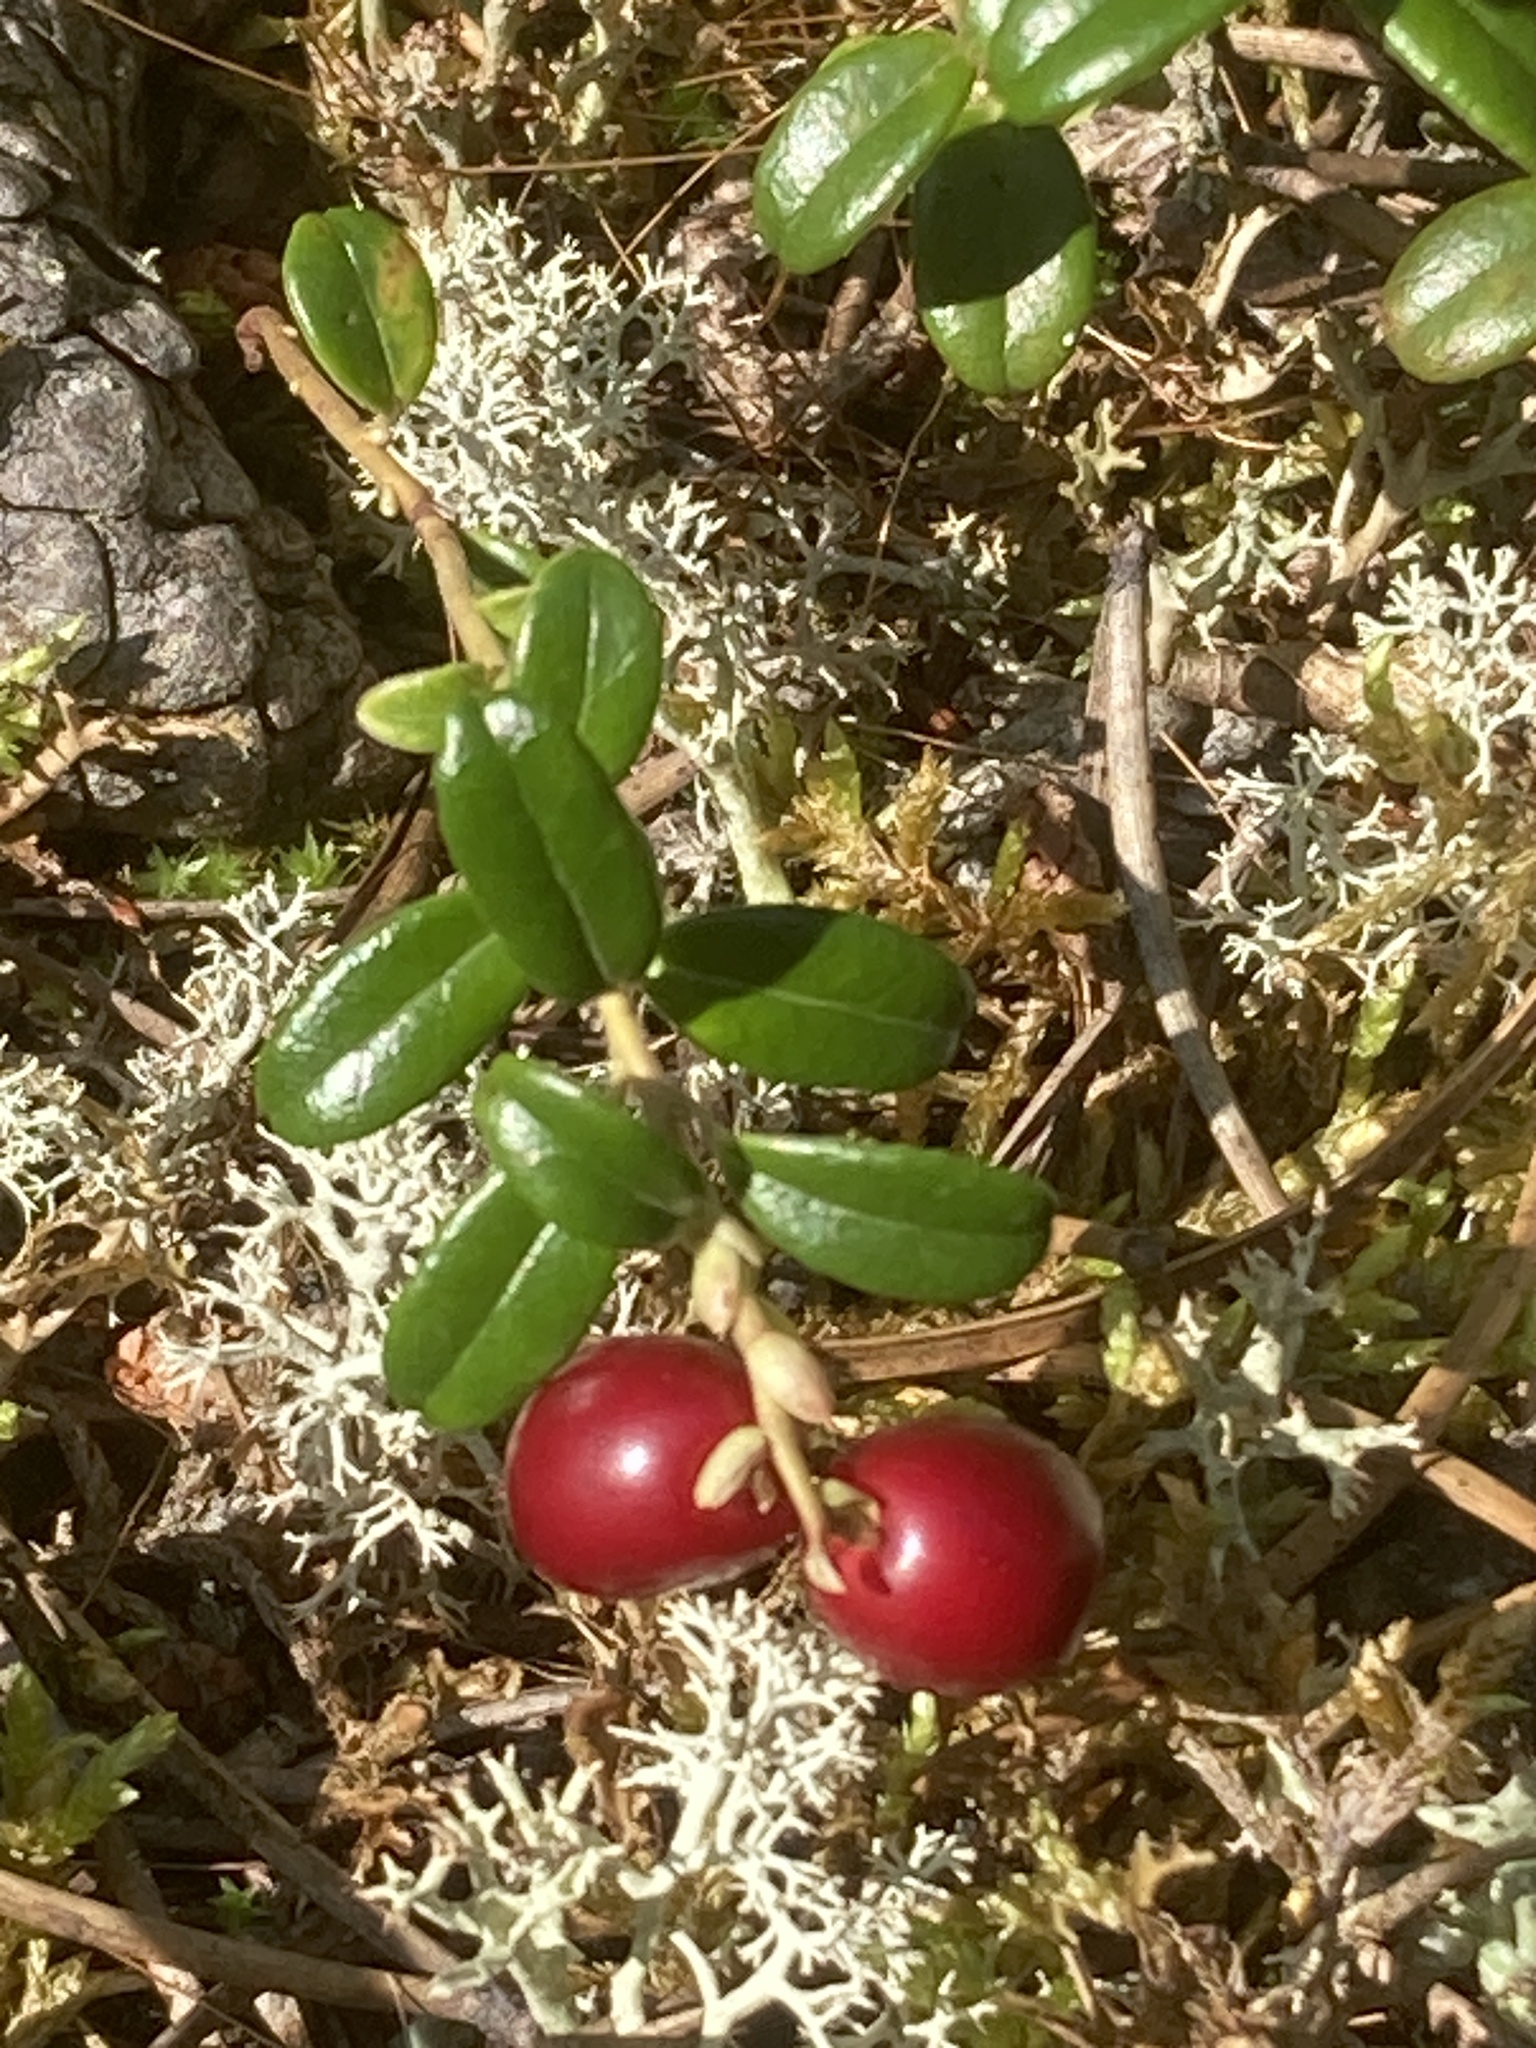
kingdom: Plantae
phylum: Tracheophyta
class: Magnoliopsida
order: Ericales
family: Ericaceae
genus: Vaccinium
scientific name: Vaccinium vitis-idaea
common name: Cowberry
